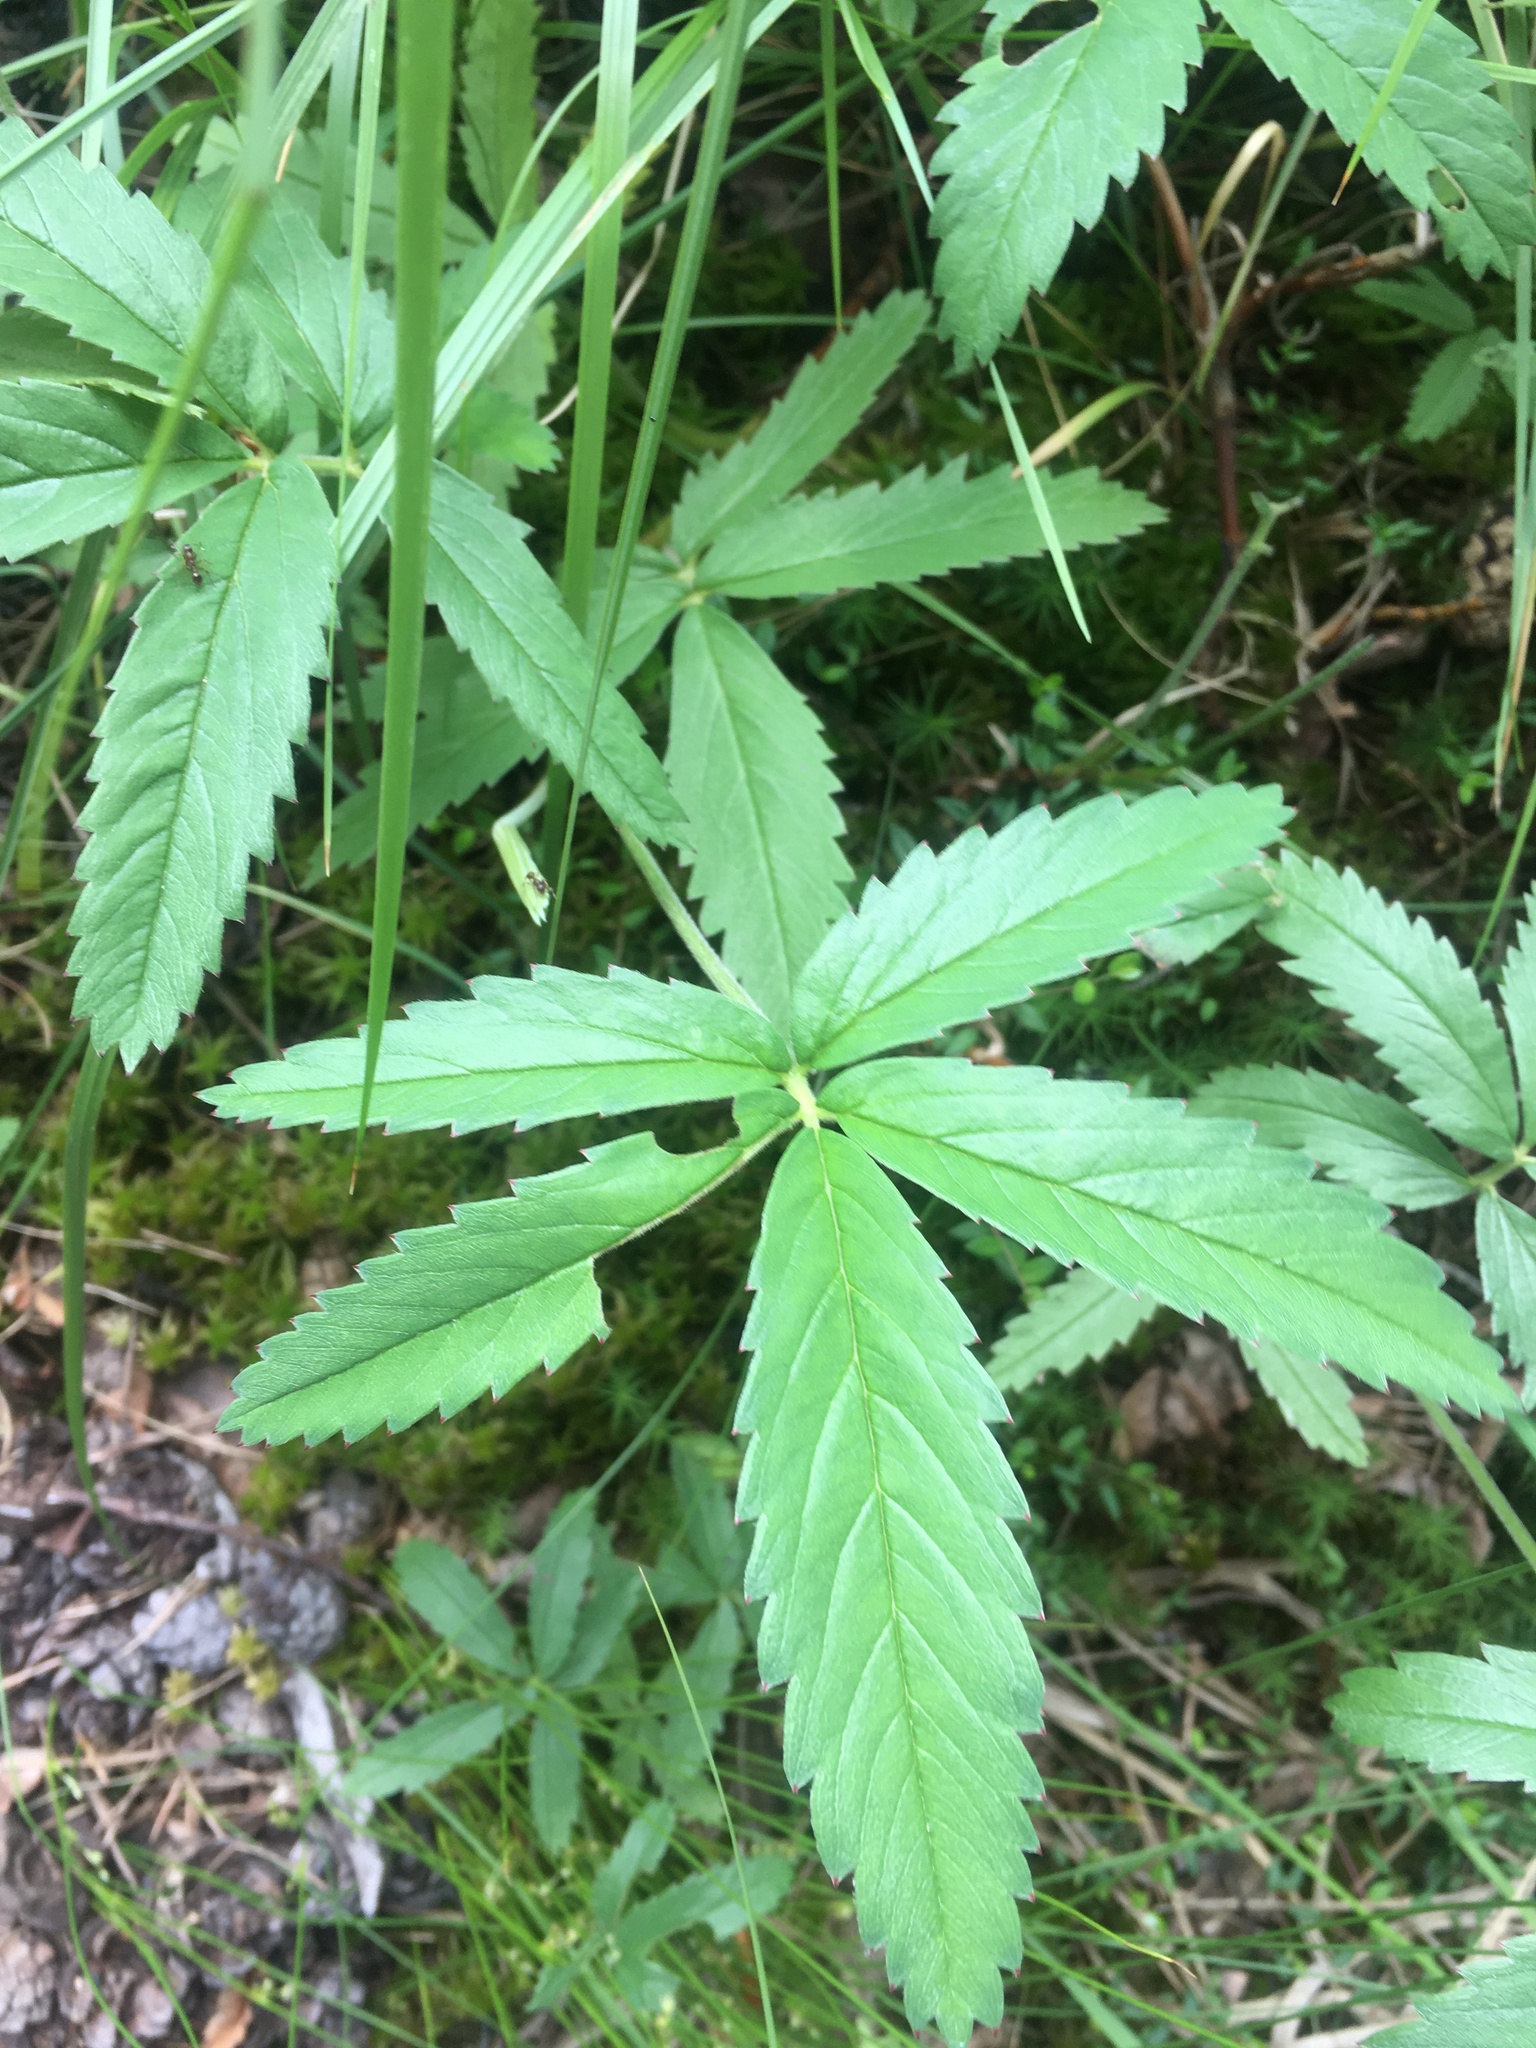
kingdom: Plantae
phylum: Tracheophyta
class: Magnoliopsida
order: Rosales
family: Rosaceae
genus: Comarum
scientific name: Comarum palustre
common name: Marsh cinquefoil
